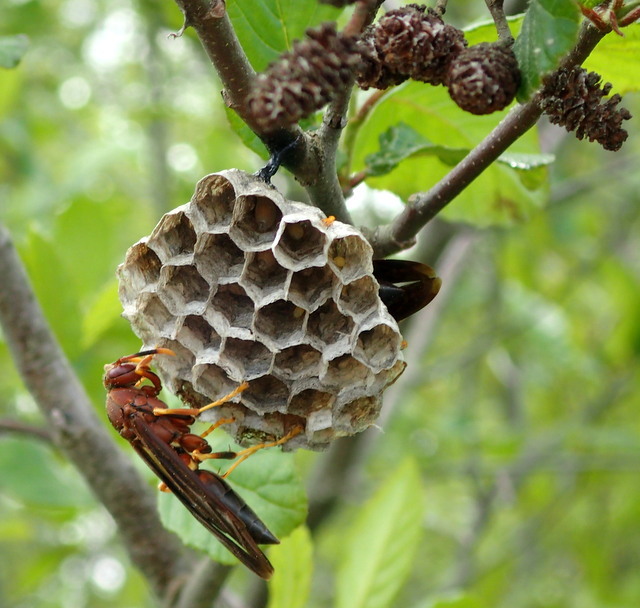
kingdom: Animalia
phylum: Arthropoda
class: Insecta
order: Hymenoptera
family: Eumenidae
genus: Polistes
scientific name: Polistes annularis
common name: Ringed paper wasp
